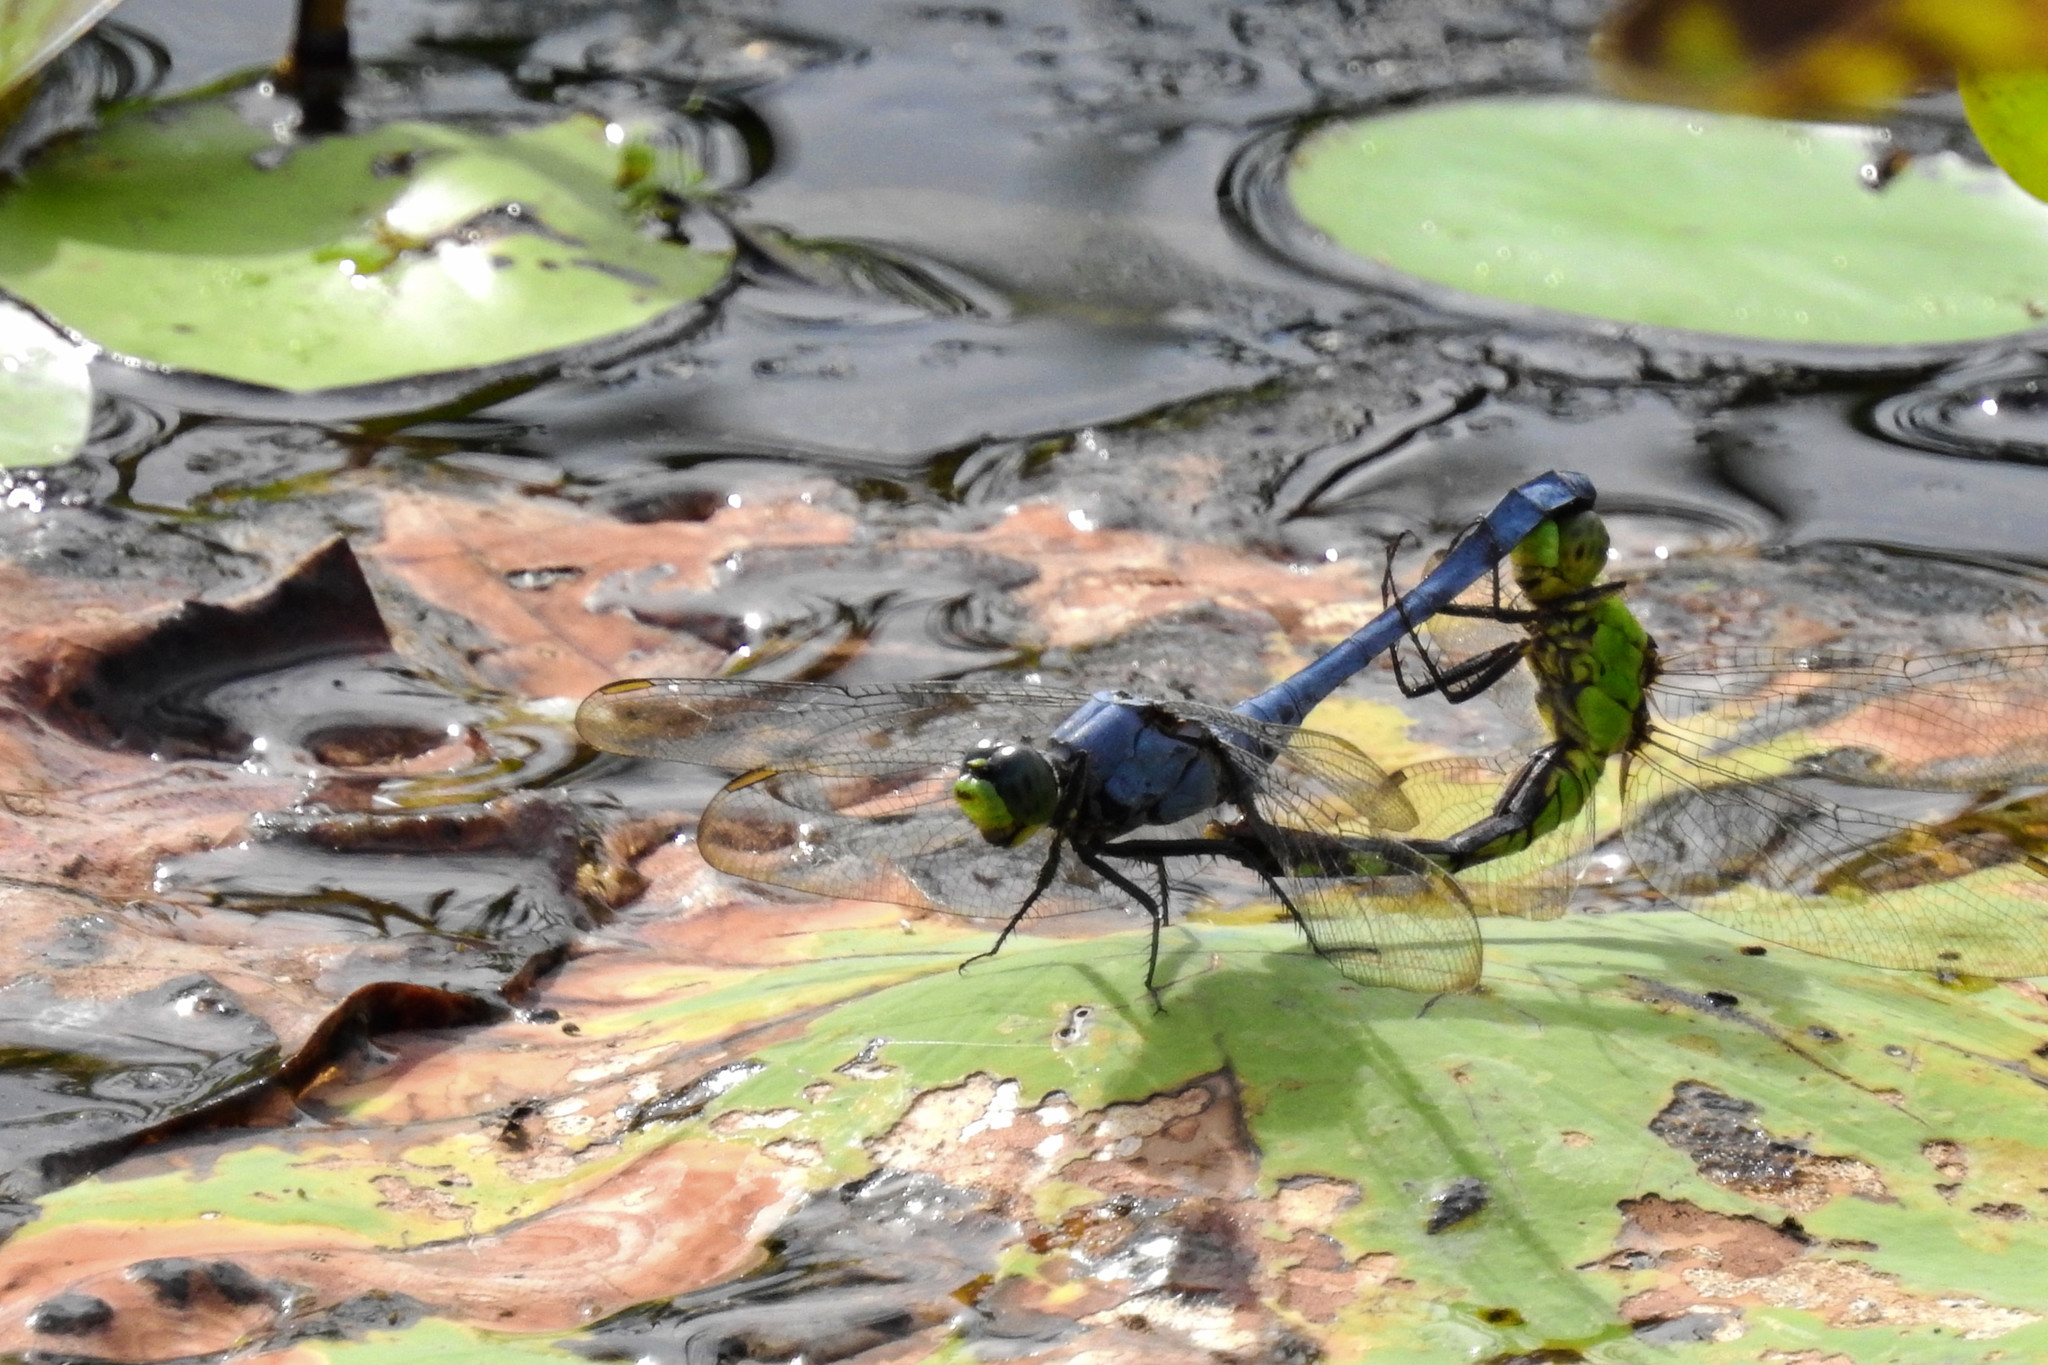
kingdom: Animalia
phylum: Arthropoda
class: Insecta
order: Odonata
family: Libellulidae
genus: Erythemis
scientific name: Erythemis simplicicollis
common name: Eastern pondhawk
